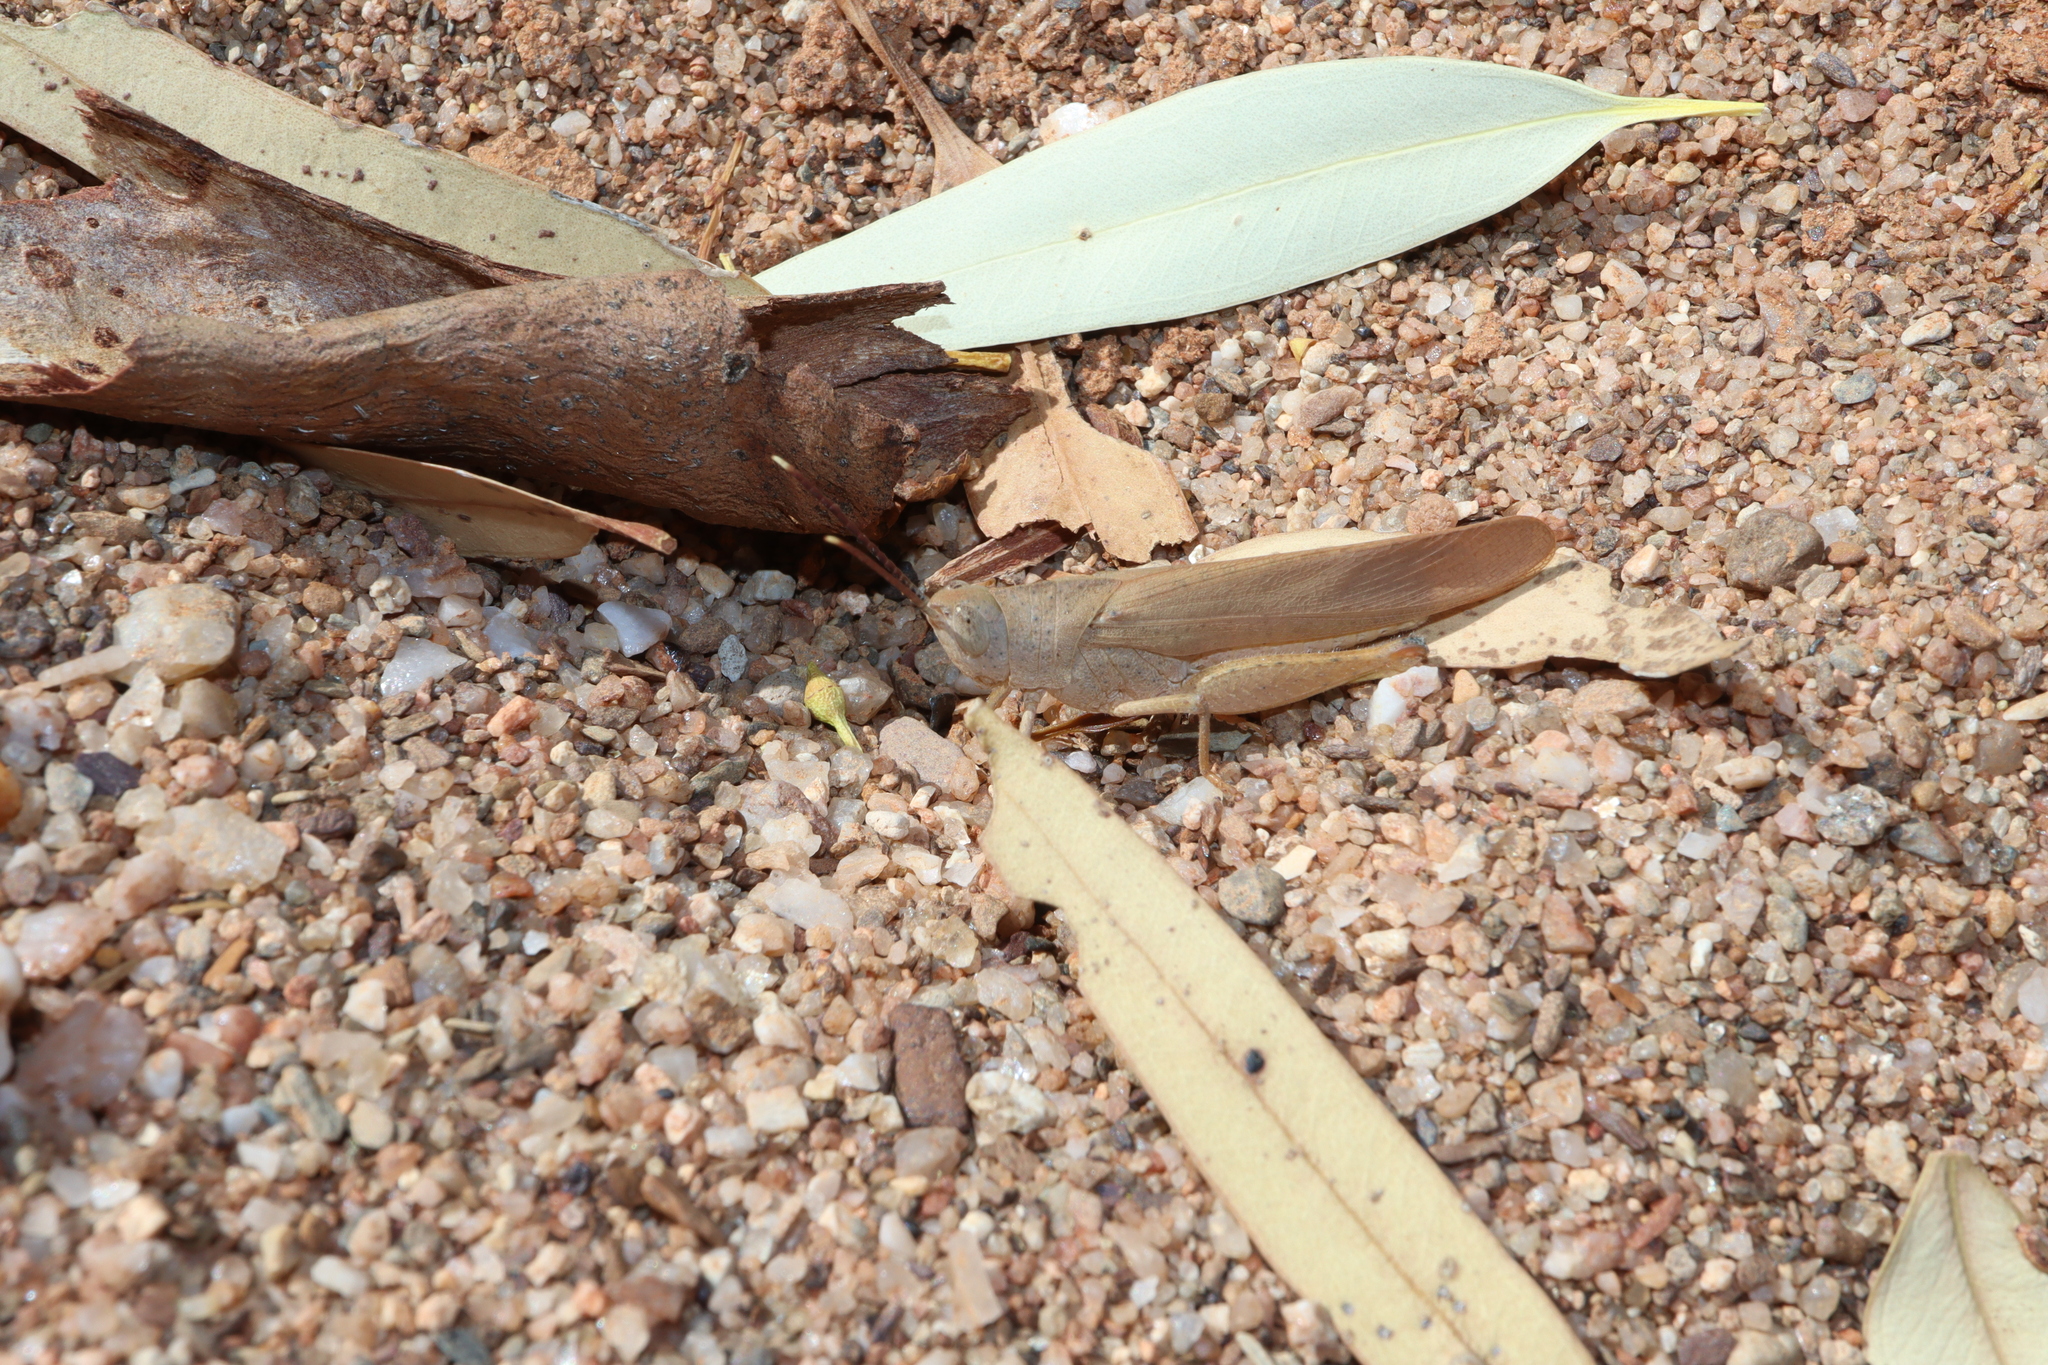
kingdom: Animalia
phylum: Arthropoda
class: Insecta
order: Orthoptera
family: Acrididae
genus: Goniaea
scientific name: Goniaea vocans
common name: Slender gumleaf grasshopper
